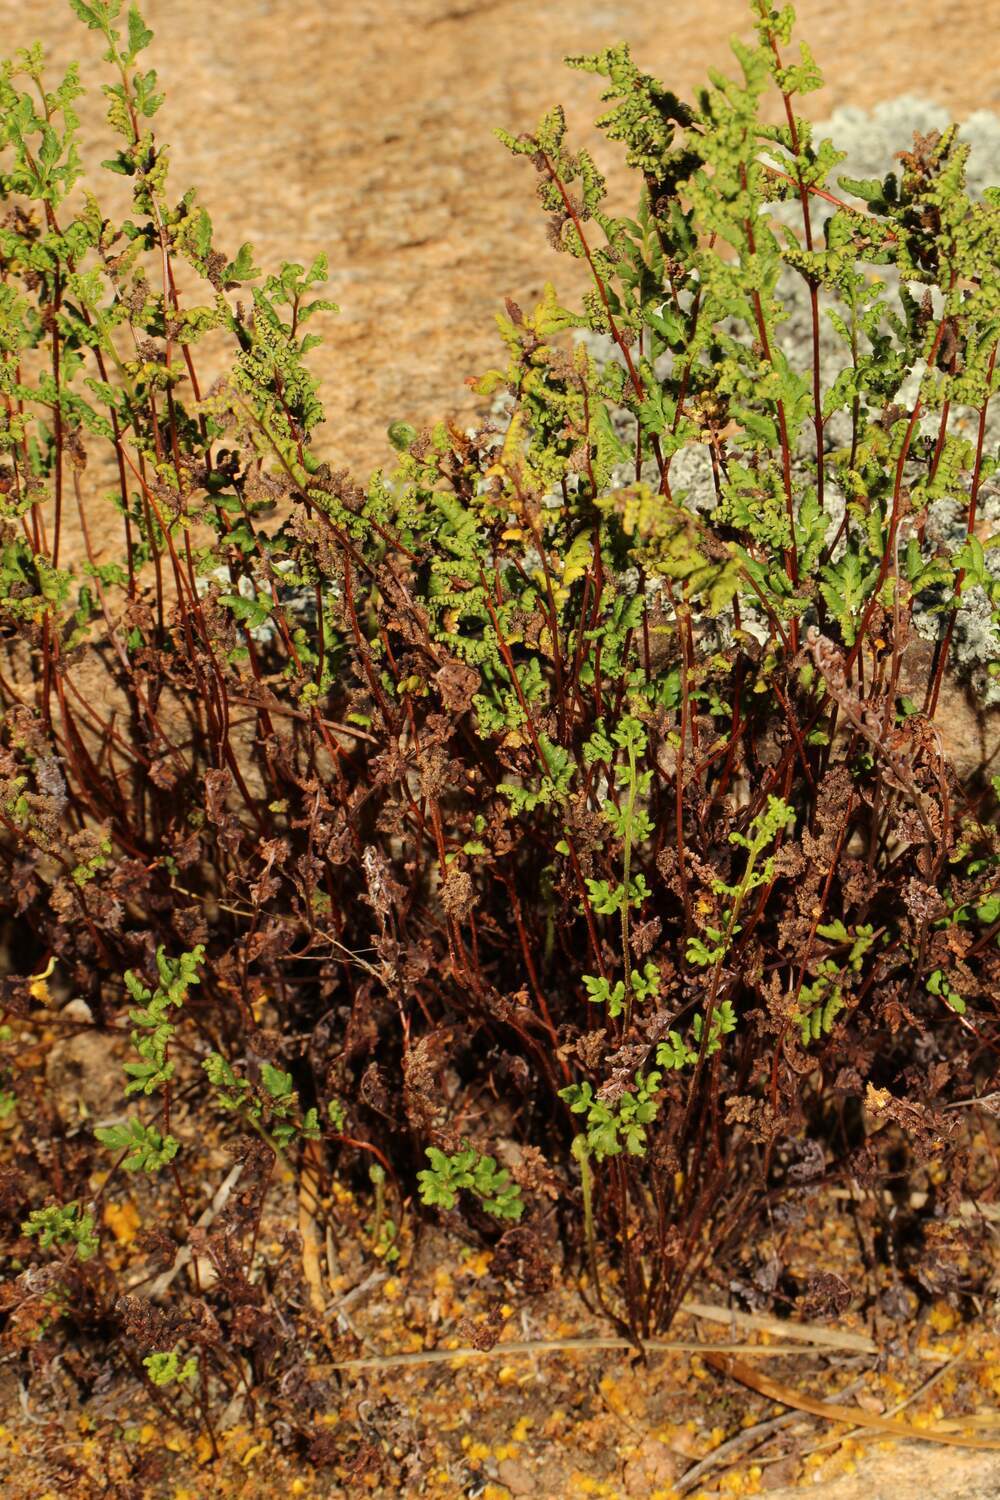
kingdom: Plantae
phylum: Tracheophyta
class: Polypodiopsida
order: Polypodiales
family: Pteridaceae
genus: Cheilanthes
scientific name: Cheilanthes sieberi
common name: Mulga fern
